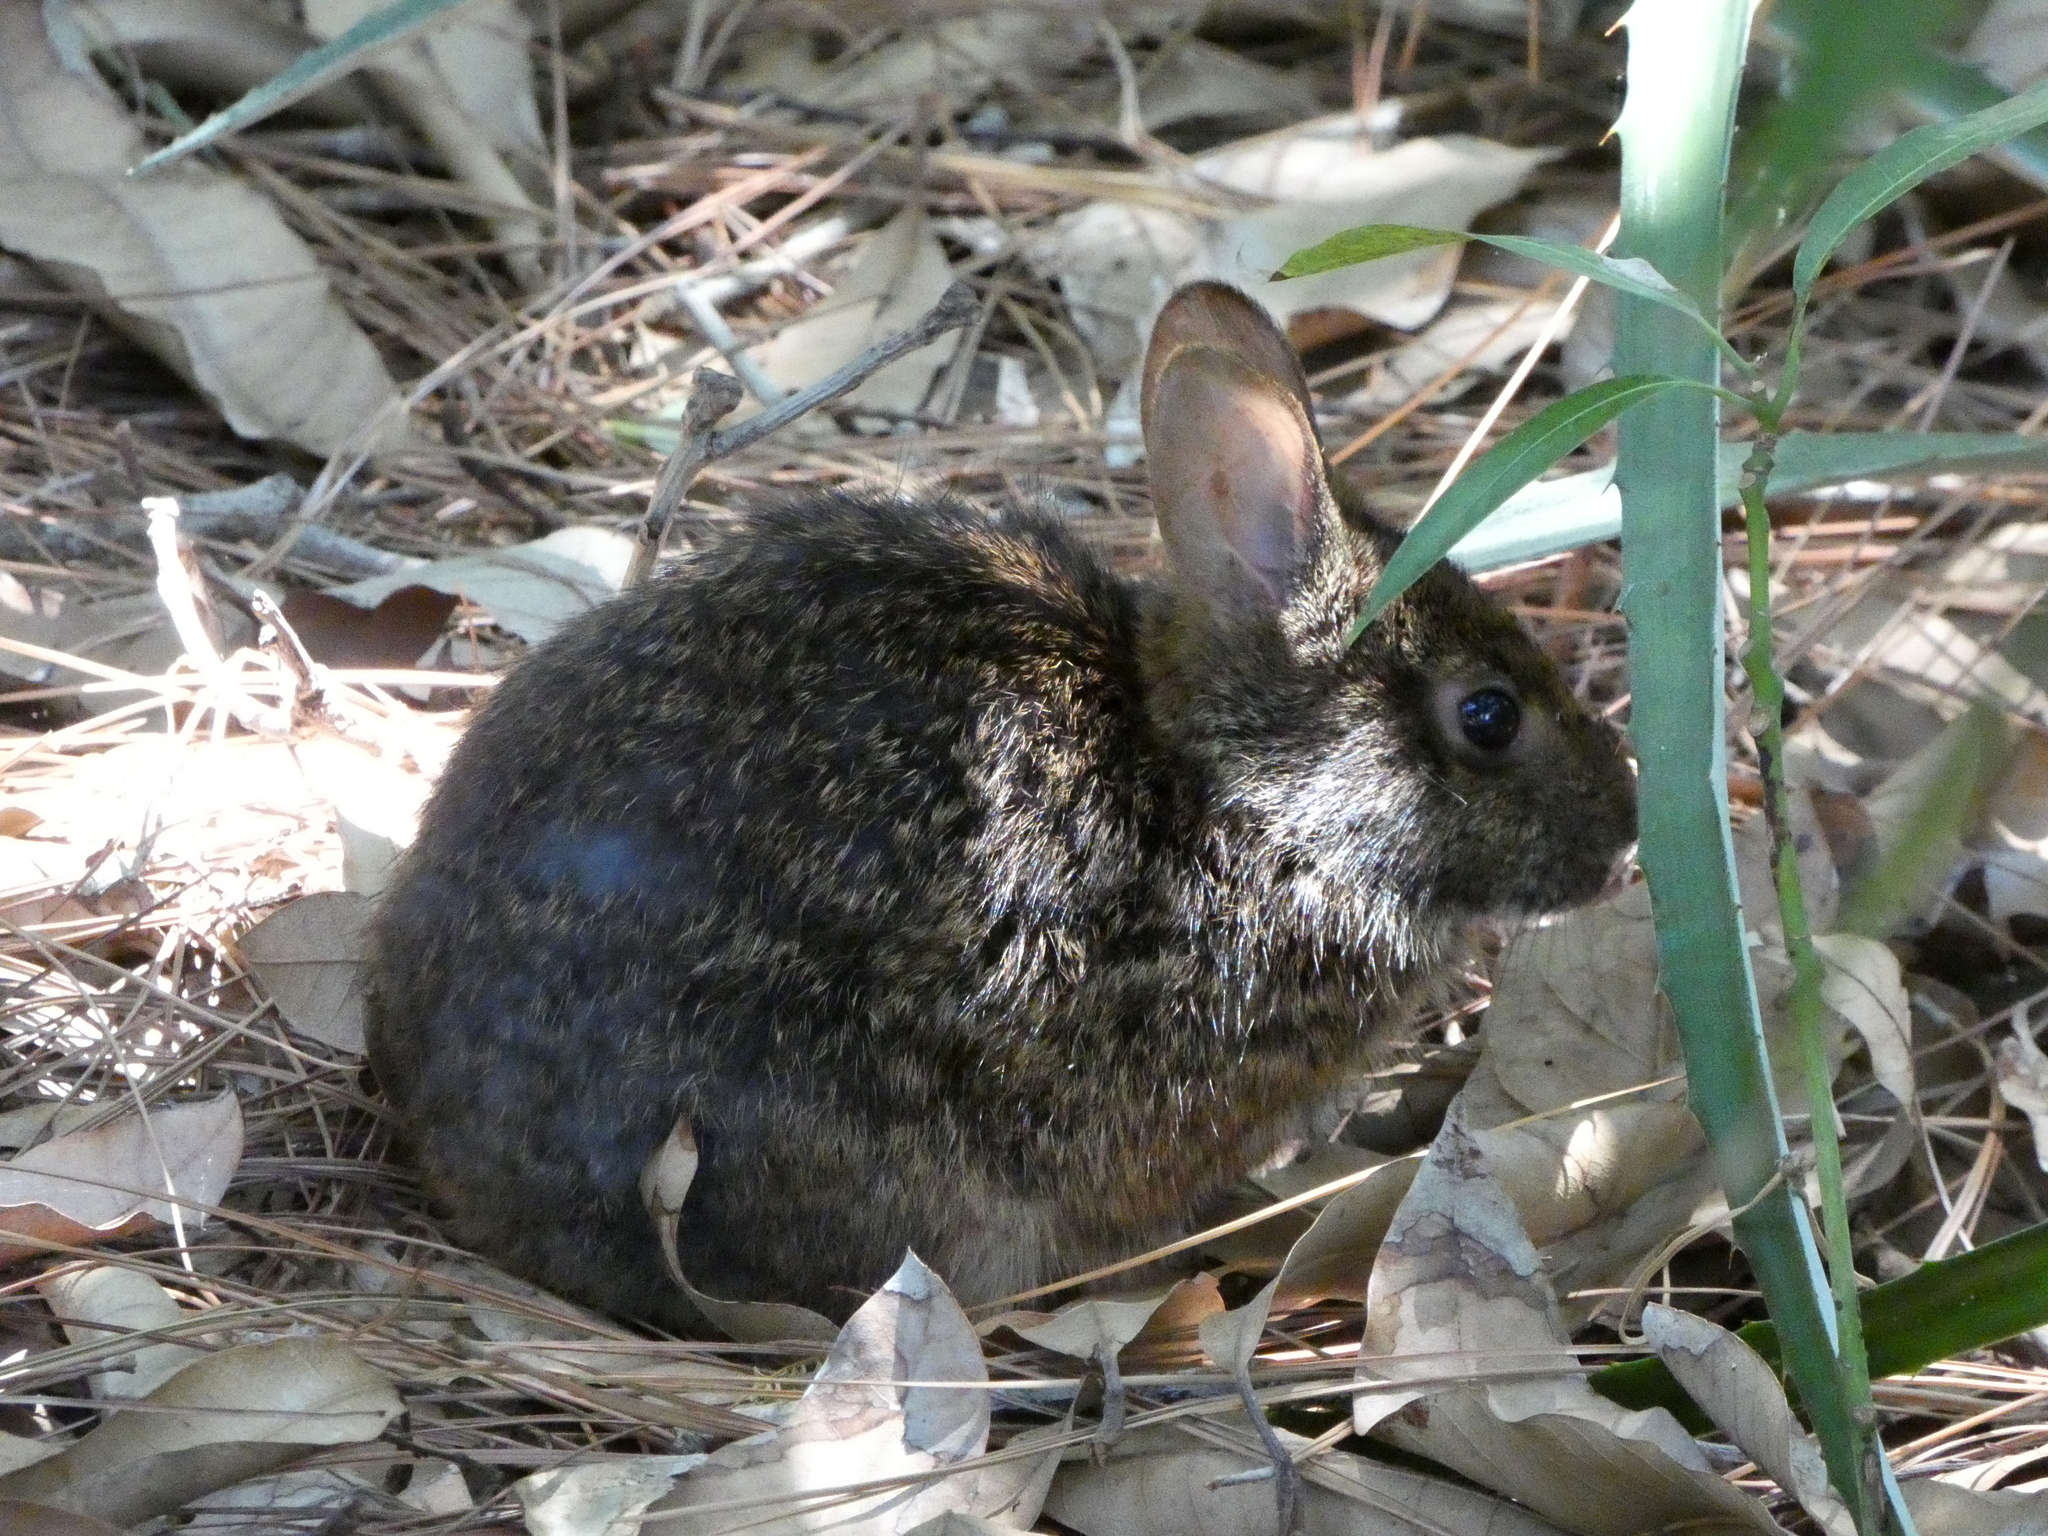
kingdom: Animalia
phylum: Chordata
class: Mammalia
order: Lagomorpha
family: Leporidae
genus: Sylvilagus
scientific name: Sylvilagus palustris
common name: Marsh rabbit
